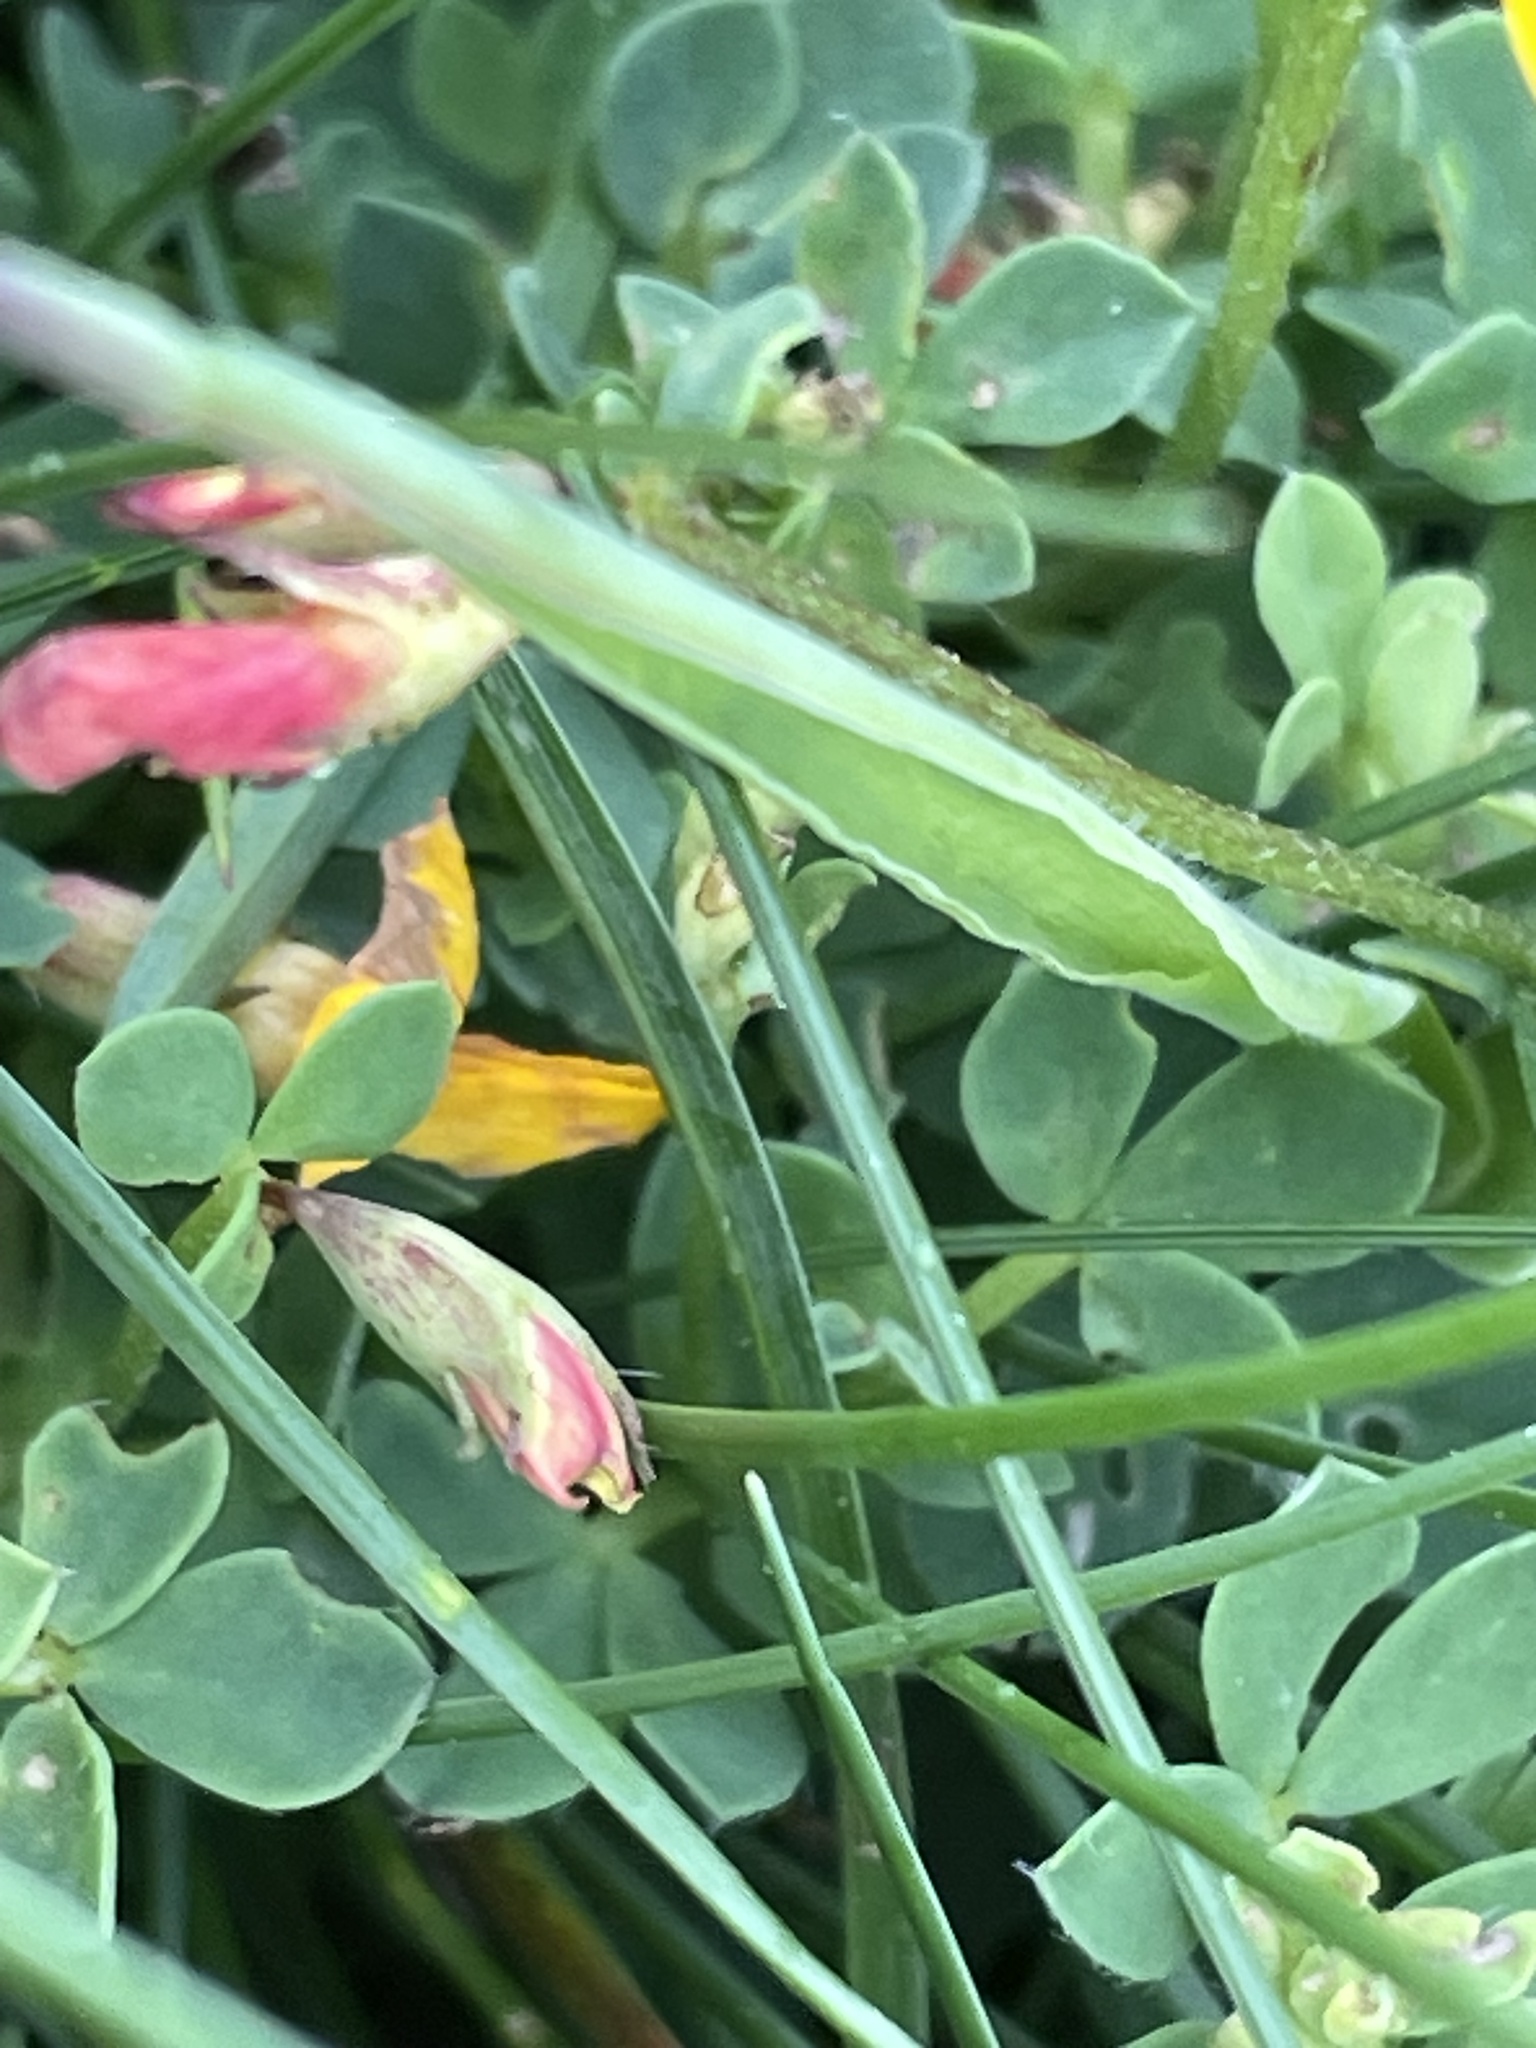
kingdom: Plantae
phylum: Tracheophyta
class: Magnoliopsida
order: Fabales
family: Fabaceae
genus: Lotus
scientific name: Lotus corniculatus
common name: Common bird's-foot-trefoil
